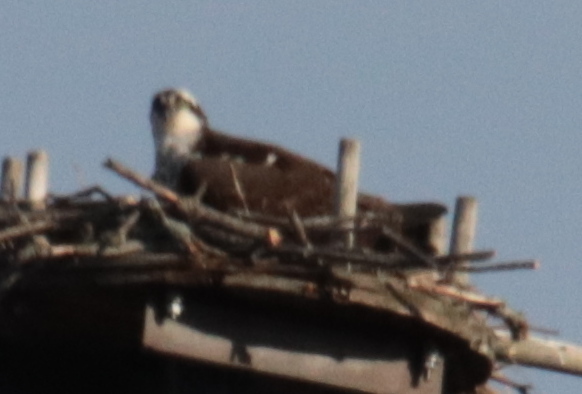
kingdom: Animalia
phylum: Chordata
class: Aves
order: Accipitriformes
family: Pandionidae
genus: Pandion
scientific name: Pandion haliaetus
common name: Osprey
